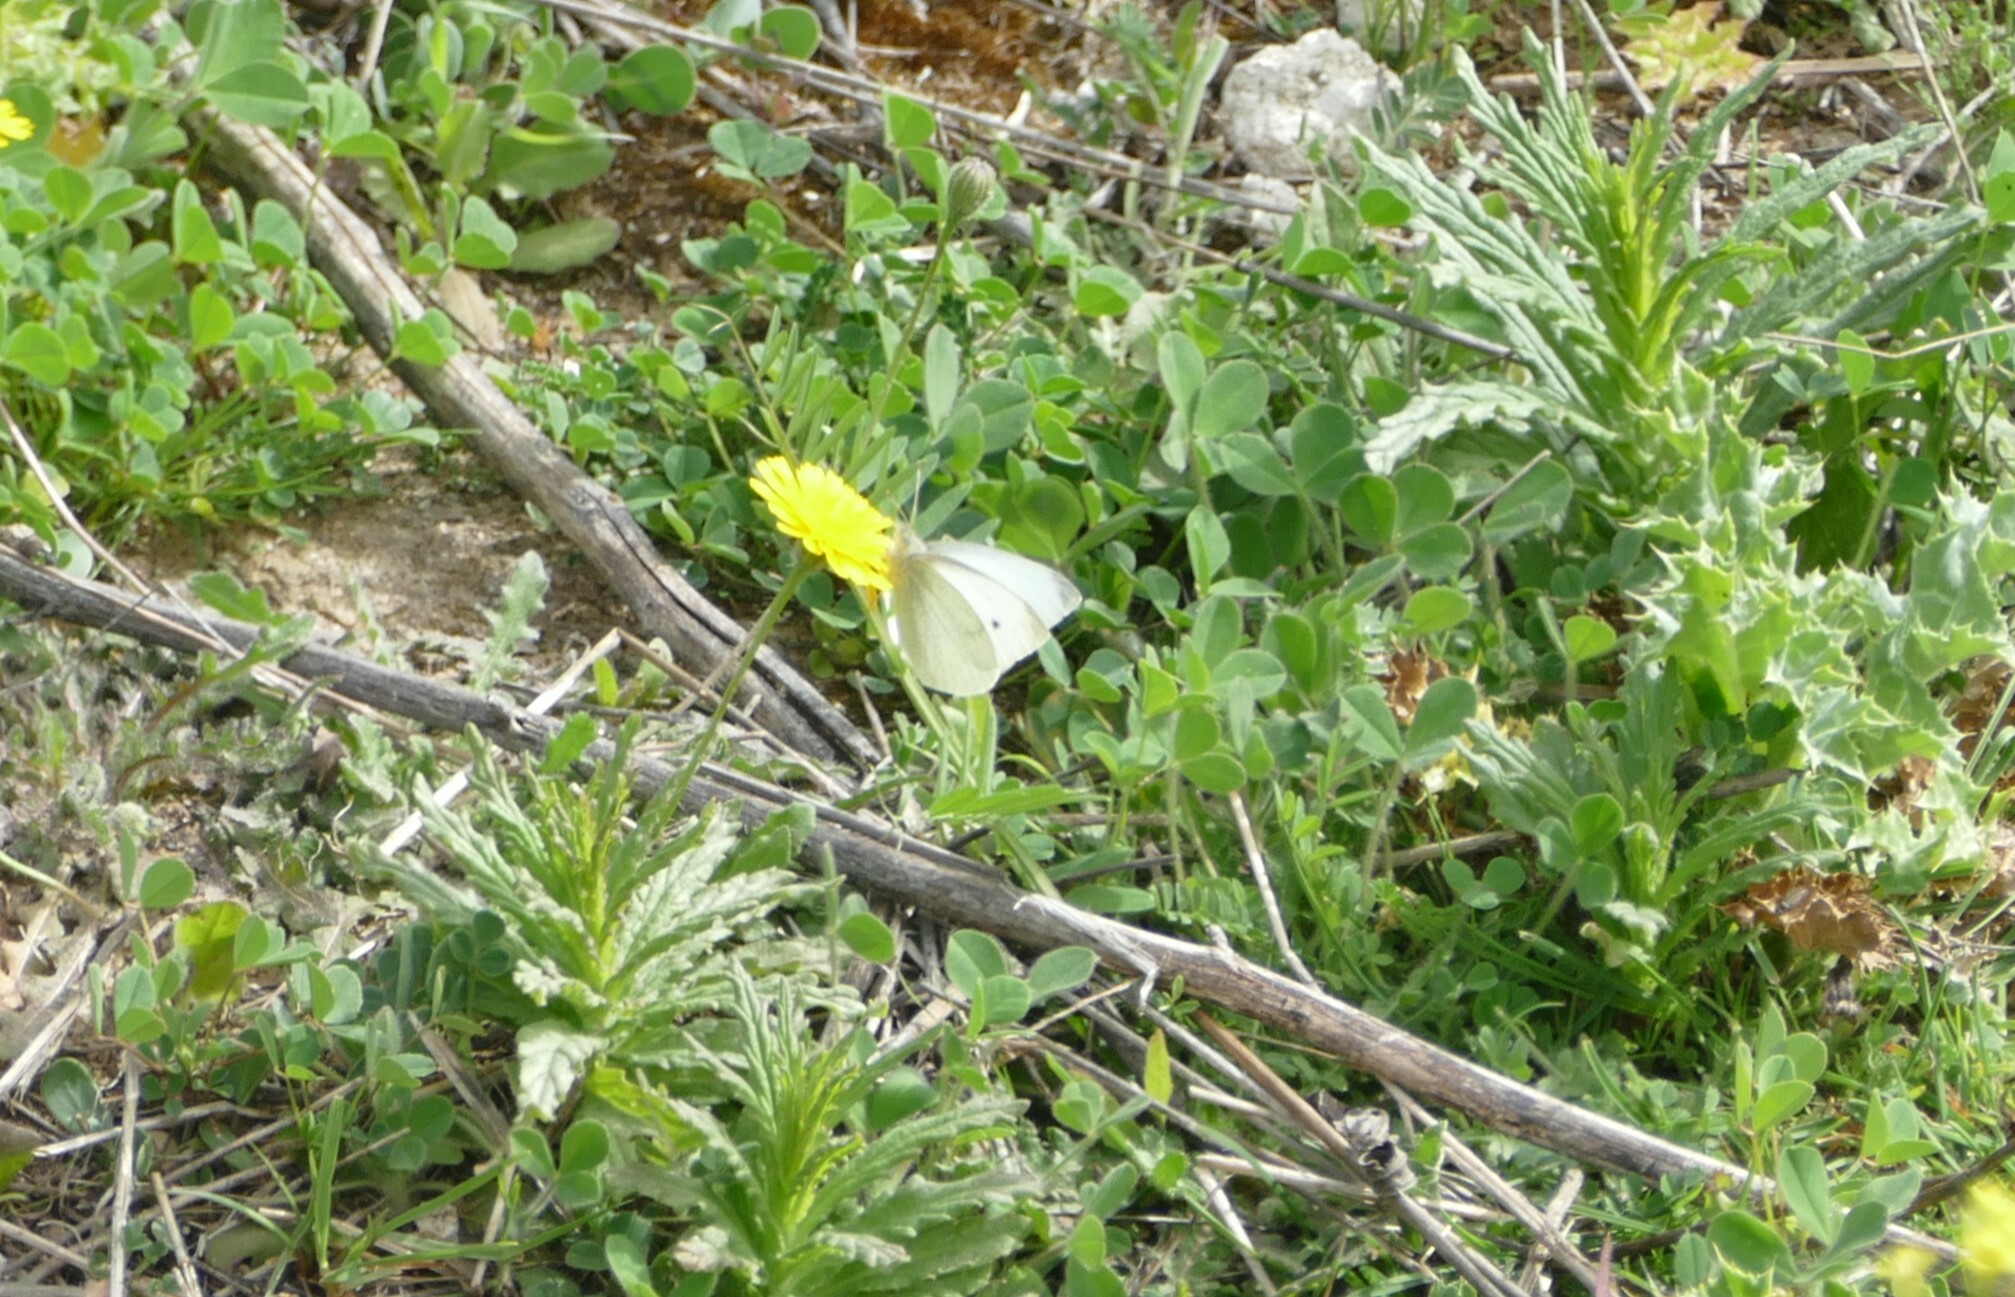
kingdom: Animalia
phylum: Arthropoda
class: Insecta
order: Lepidoptera
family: Pieridae
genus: Pieris
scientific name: Pieris rapae
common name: Small white
